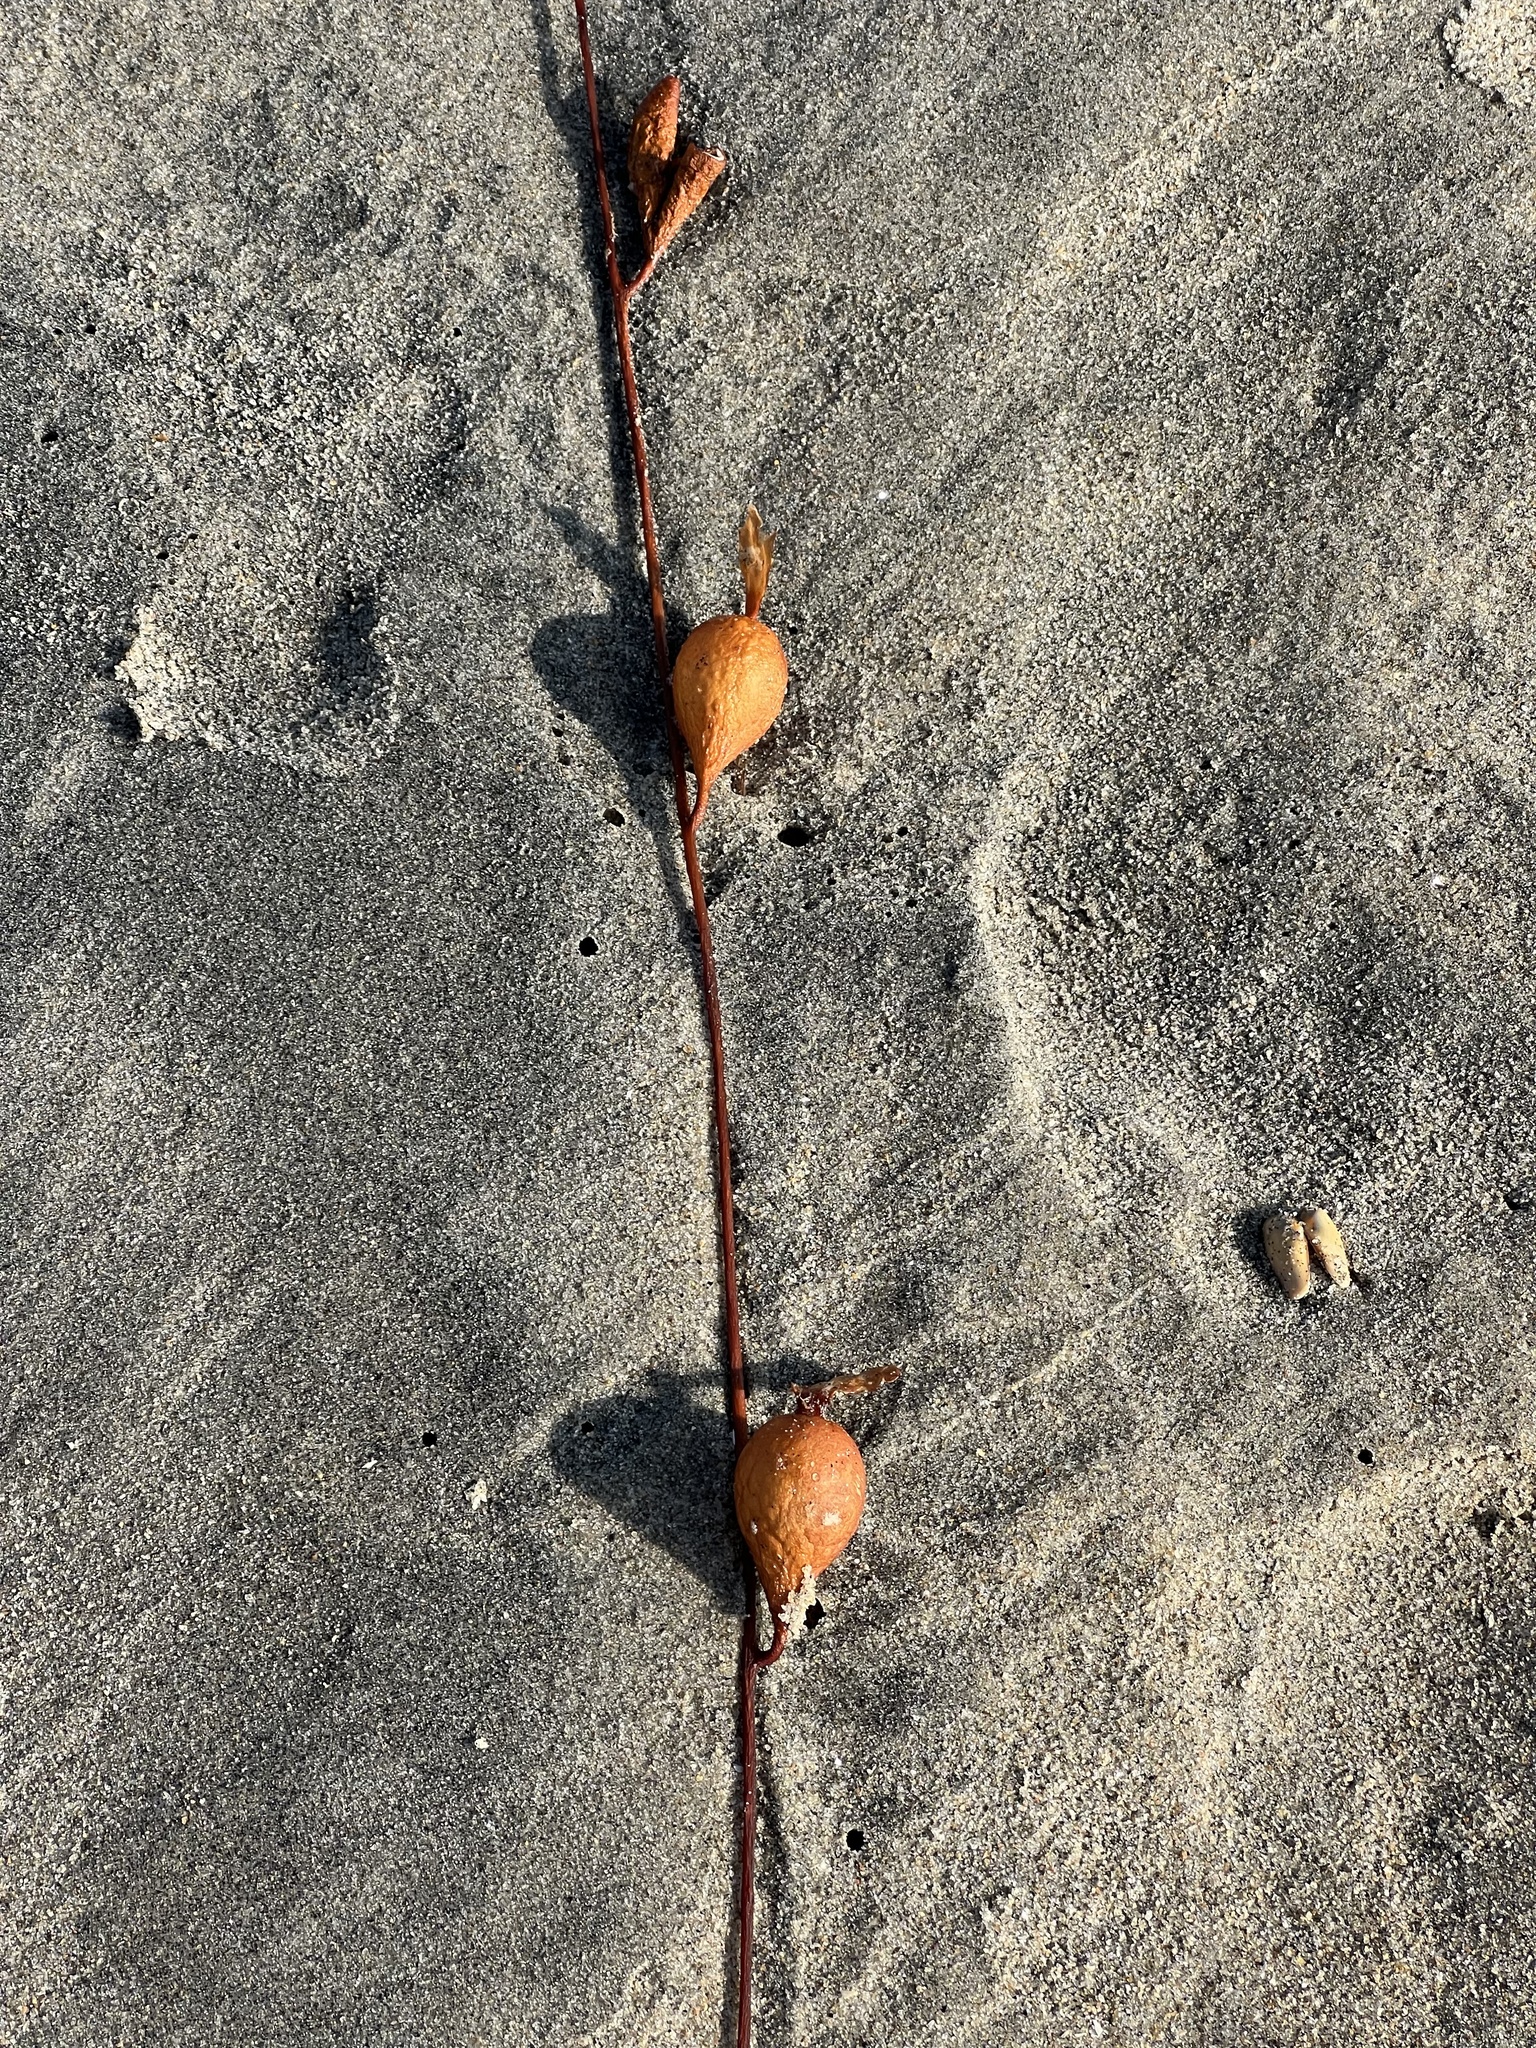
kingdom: Chromista
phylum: Ochrophyta
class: Phaeophyceae
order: Laminariales
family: Laminariaceae
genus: Macrocystis
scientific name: Macrocystis pyrifera
